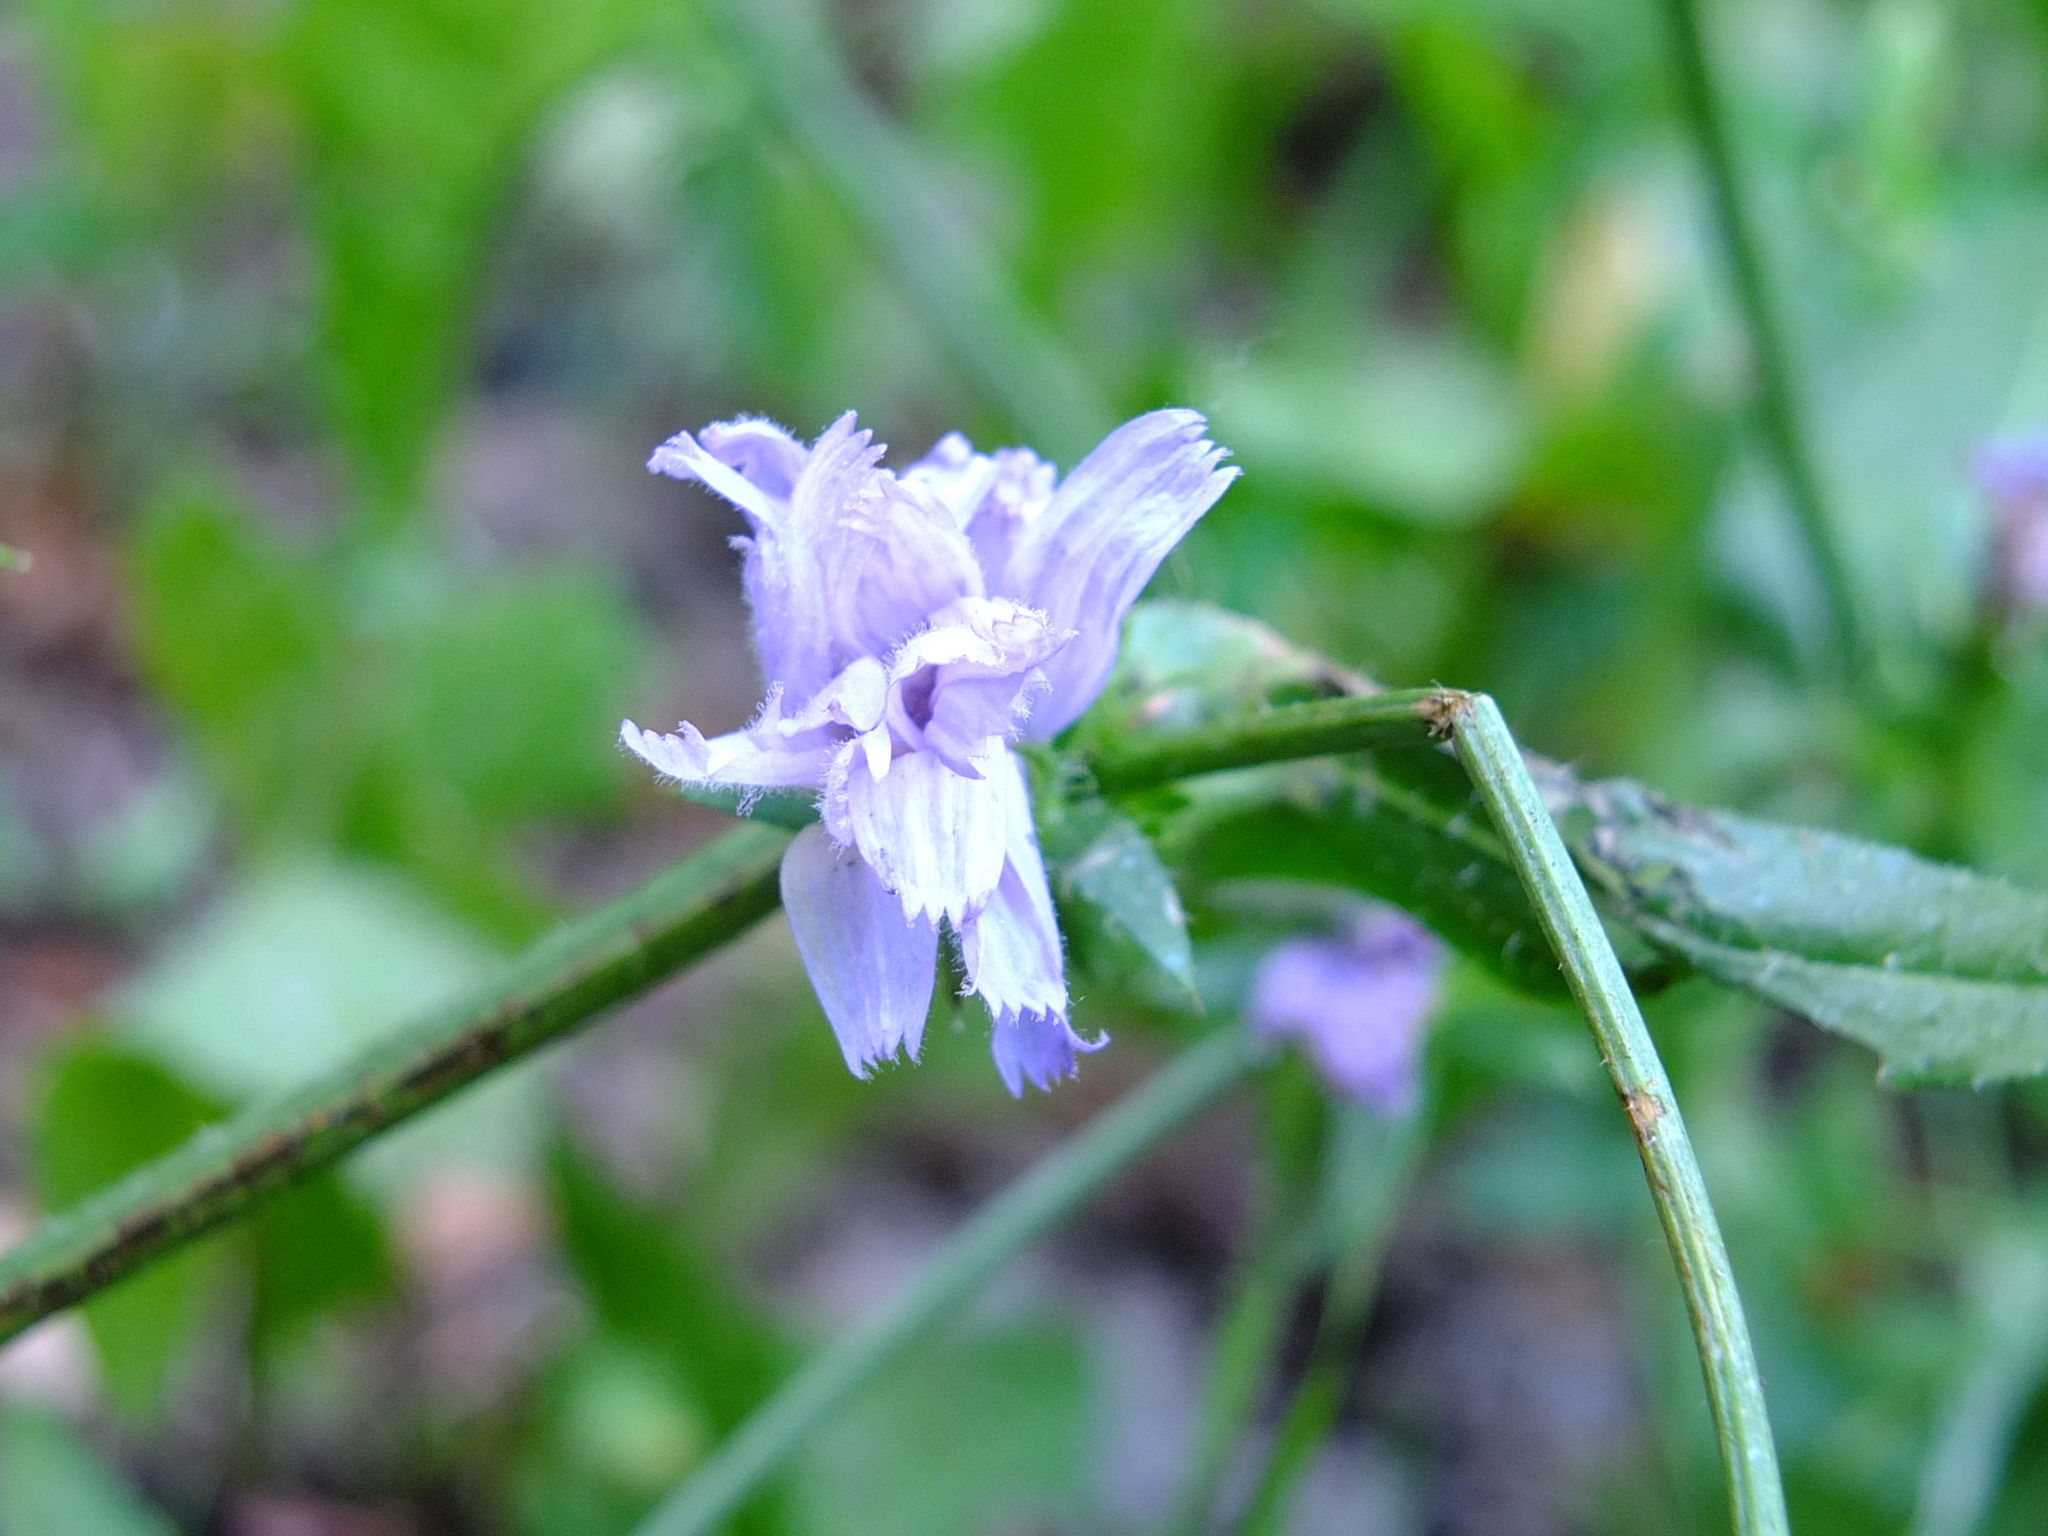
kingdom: Plantae
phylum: Tracheophyta
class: Magnoliopsida
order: Asterales
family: Asteraceae
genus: Cichorium
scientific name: Cichorium intybus
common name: Chicory
